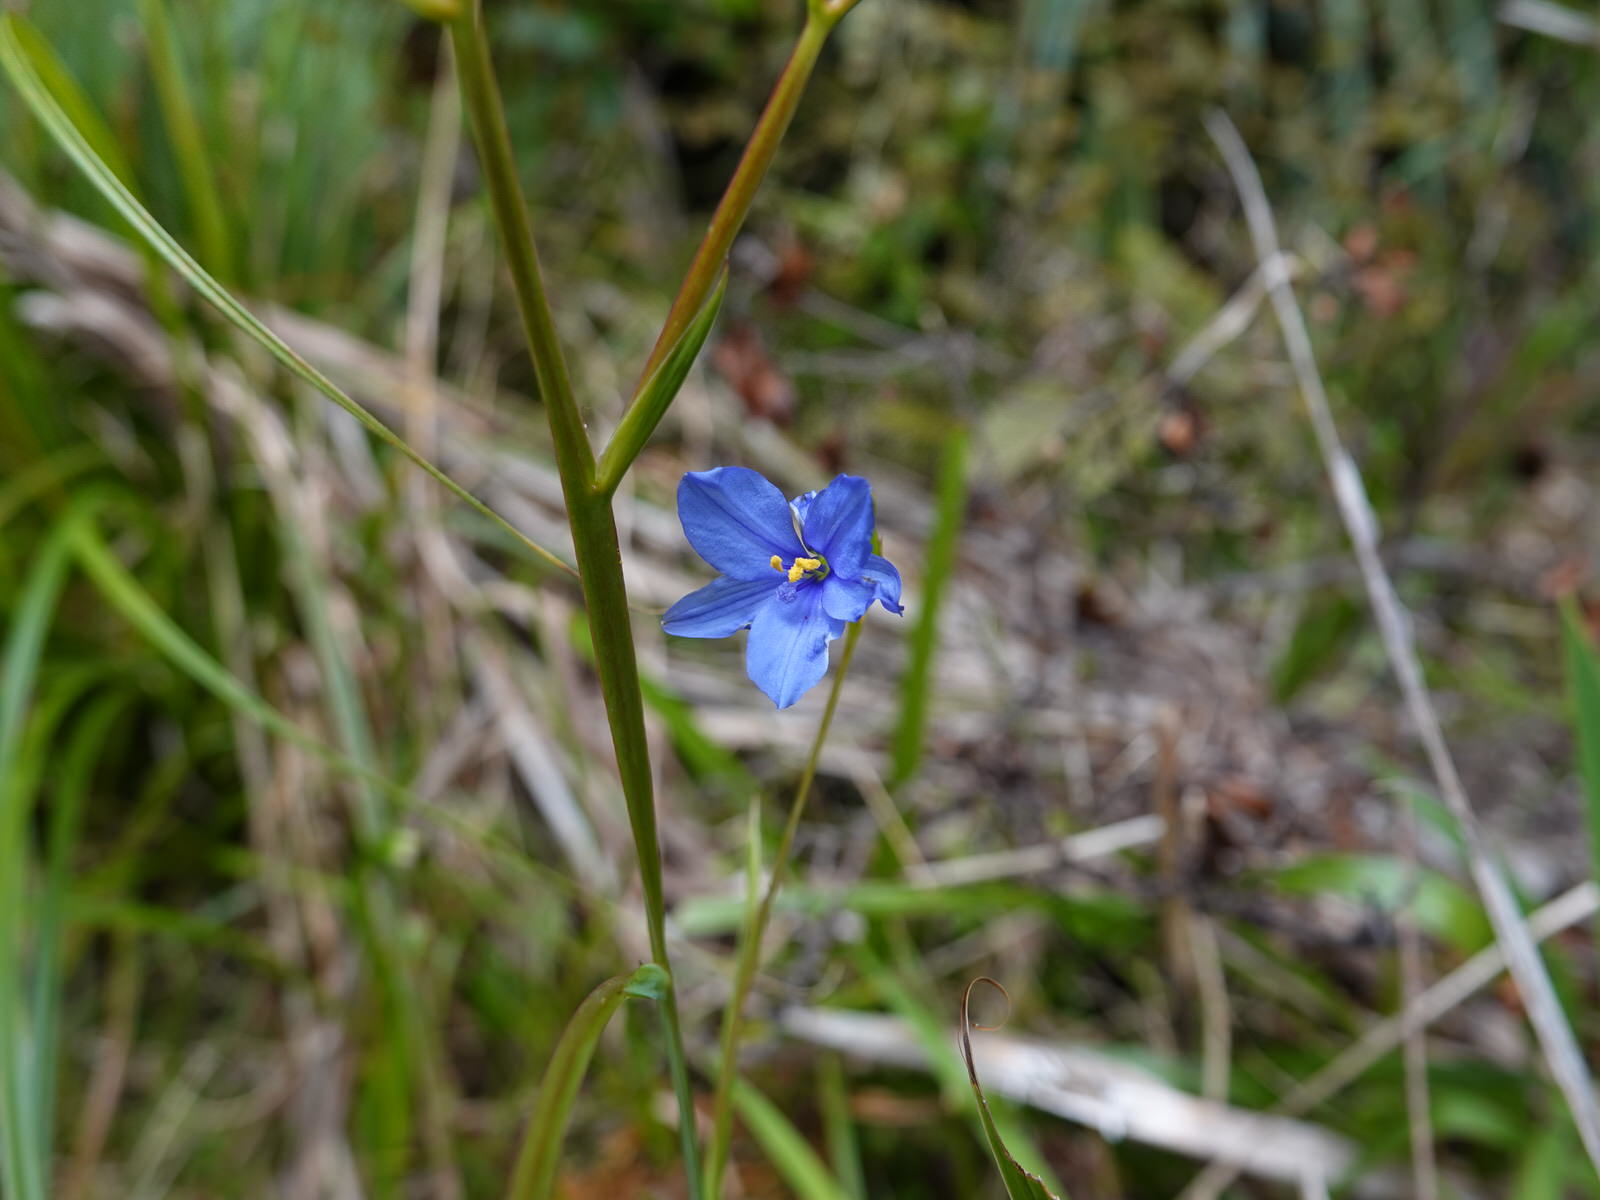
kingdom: Plantae
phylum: Tracheophyta
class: Liliopsida
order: Asparagales
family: Iridaceae
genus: Aristea
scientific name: Aristea ecklonii
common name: Blue corn-lily
